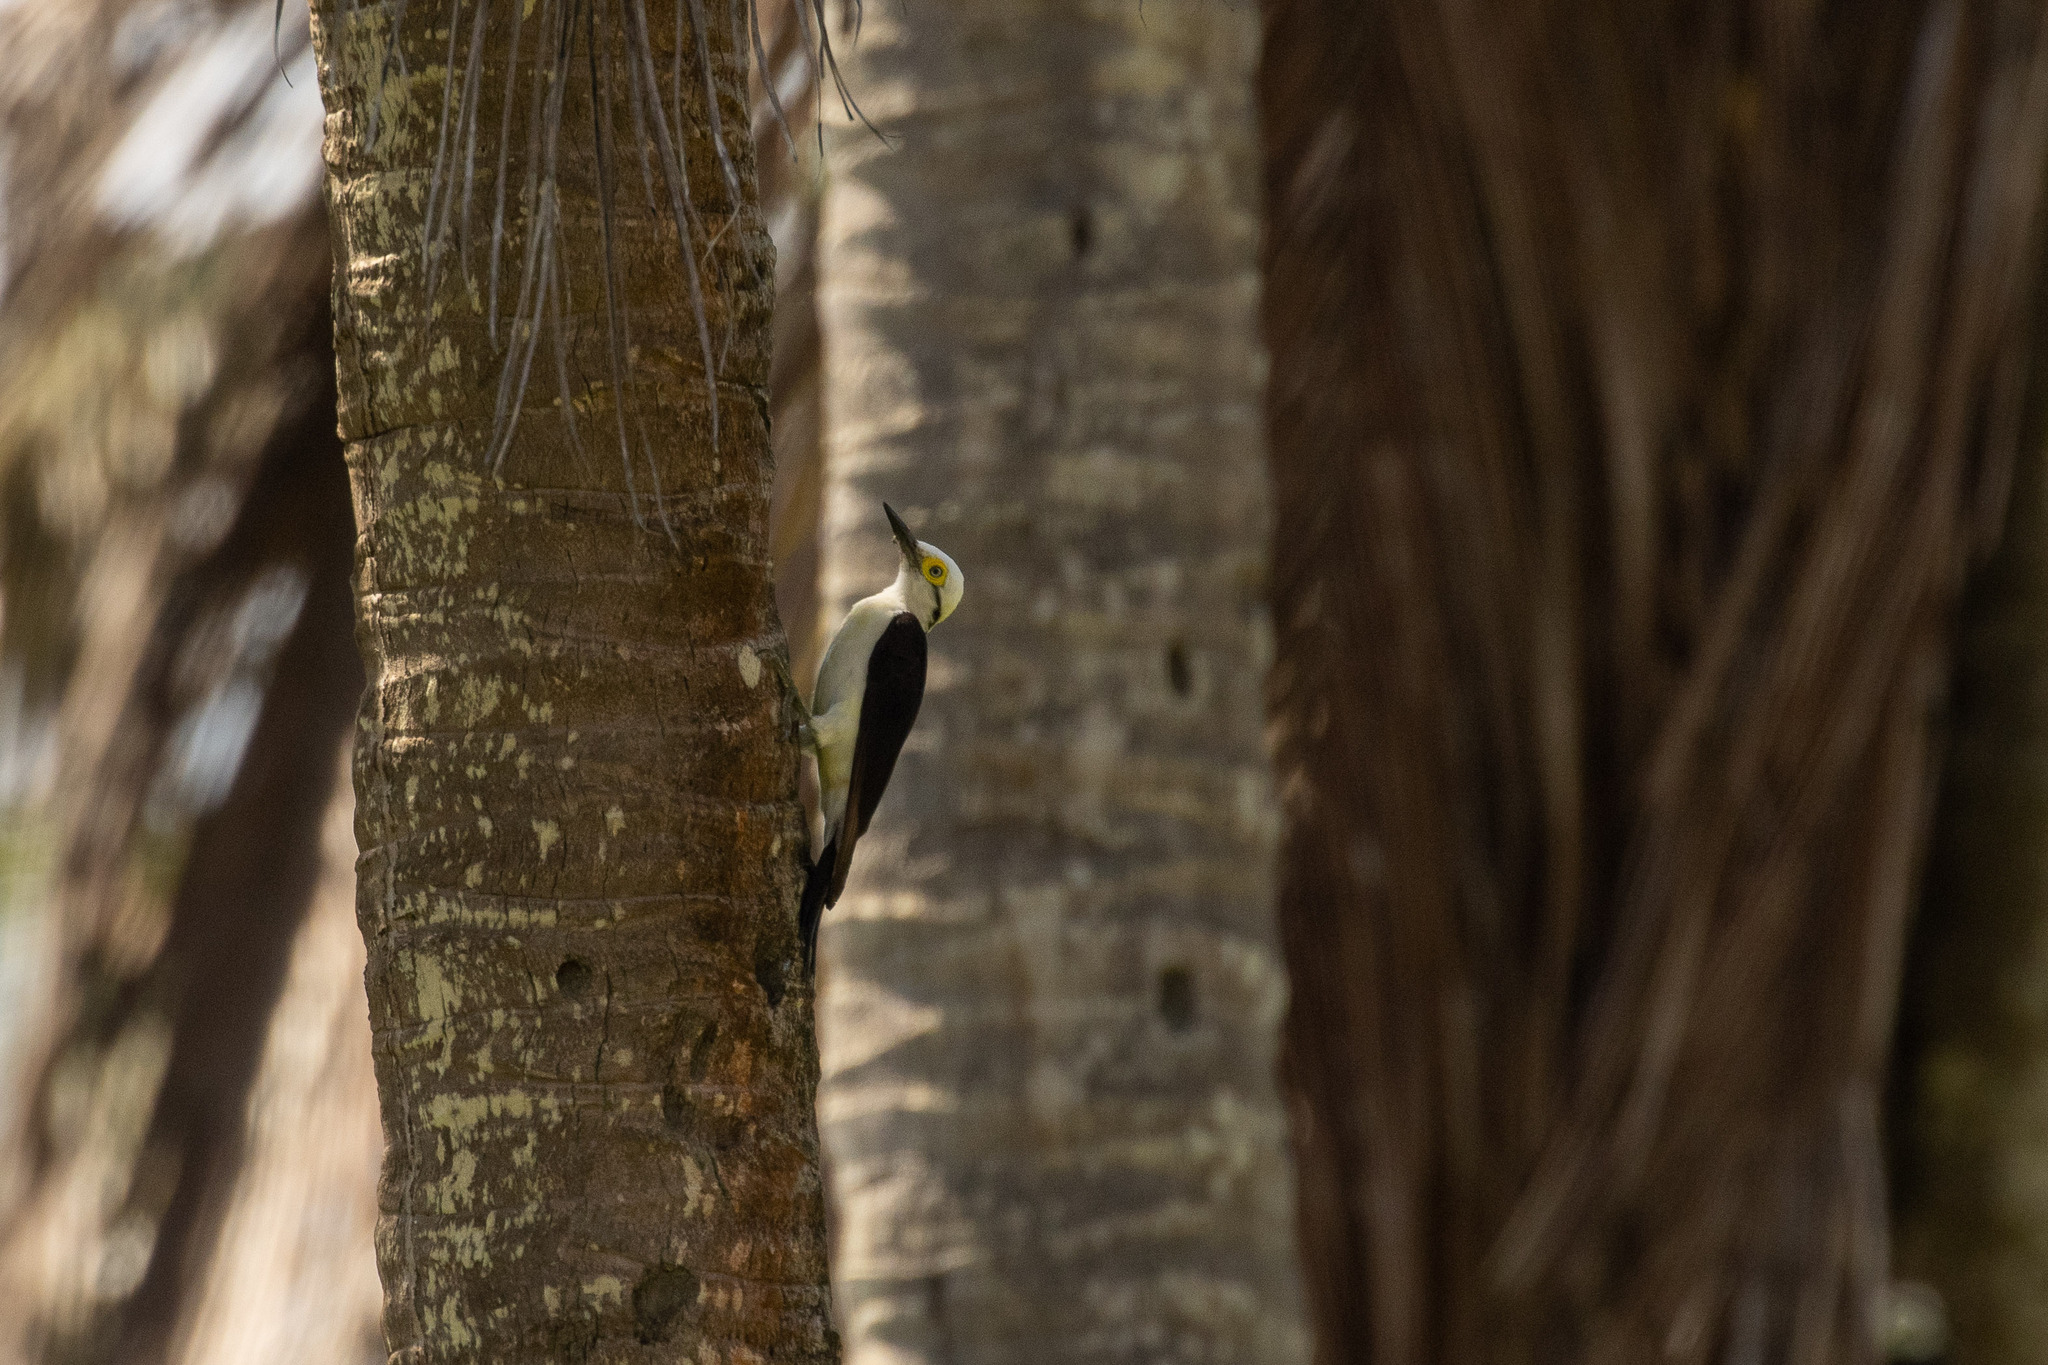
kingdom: Animalia
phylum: Chordata
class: Aves
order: Piciformes
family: Picidae
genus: Melanerpes
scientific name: Melanerpes candidus
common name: White woodpecker
